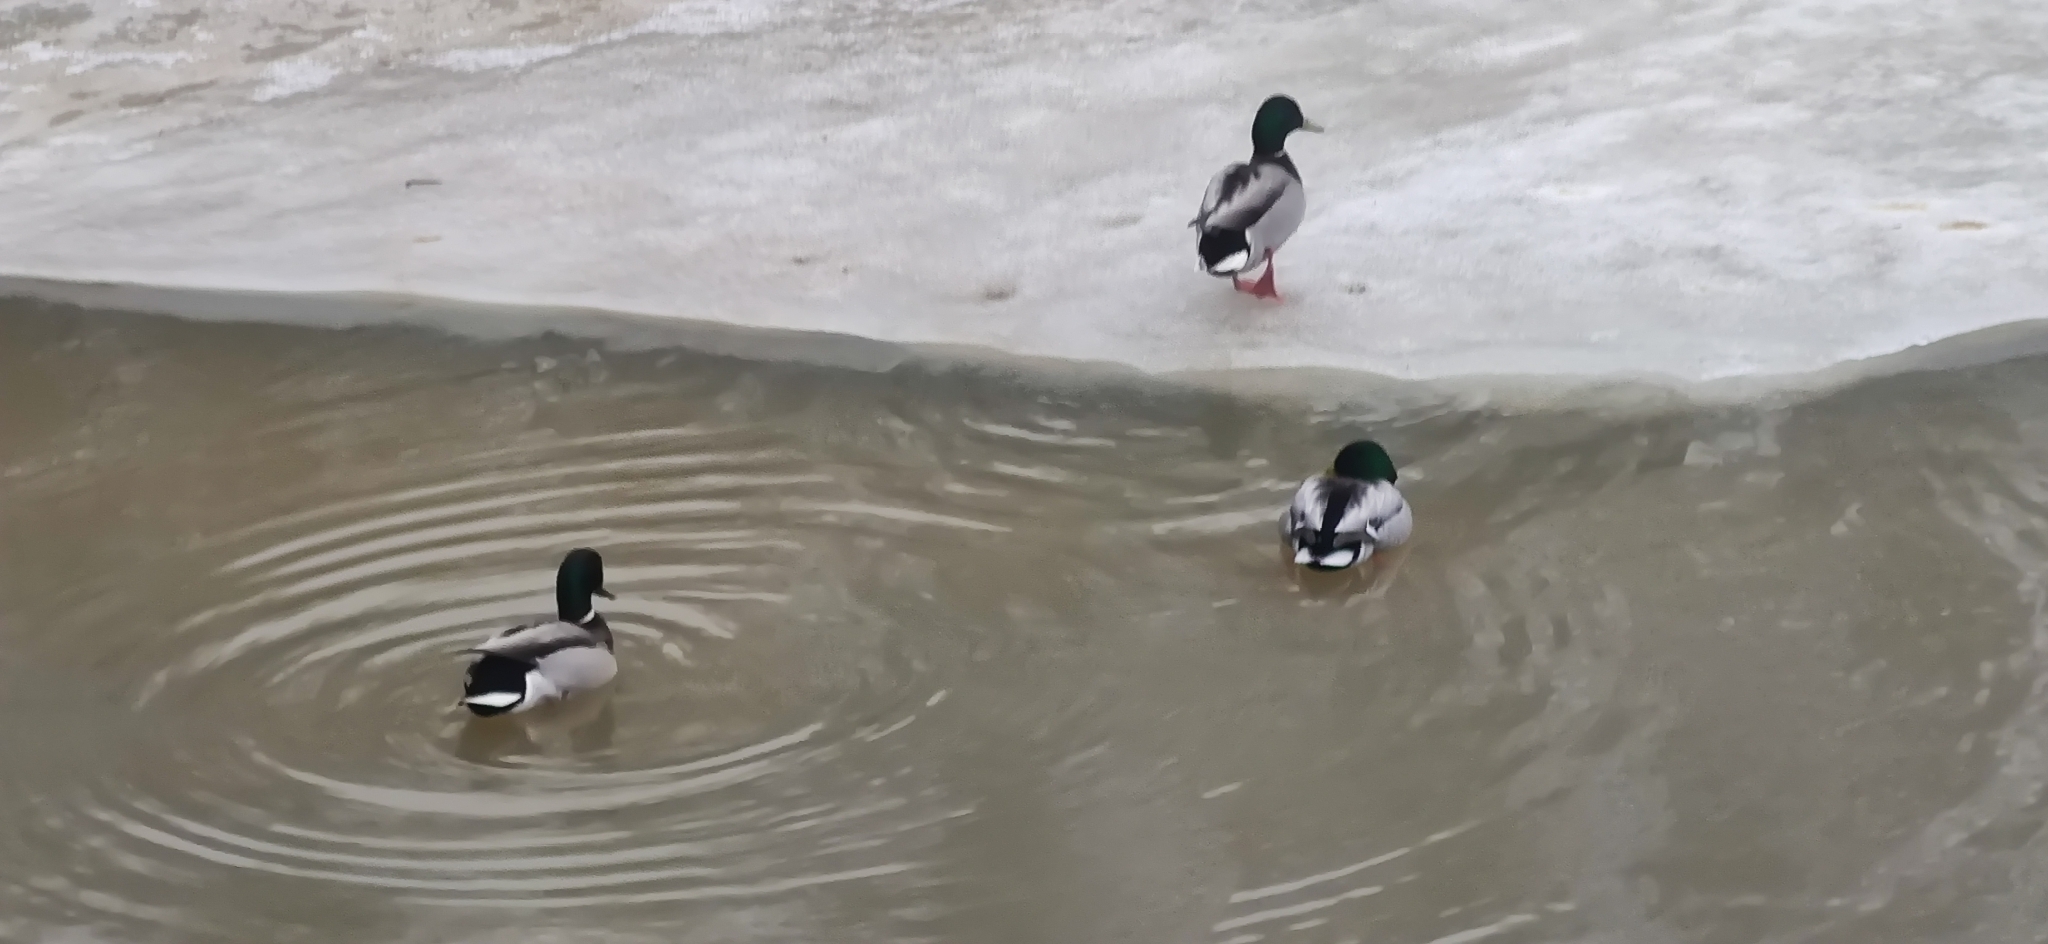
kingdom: Animalia
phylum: Chordata
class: Aves
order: Anseriformes
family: Anatidae
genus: Anas
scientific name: Anas platyrhynchos
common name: Mallard
